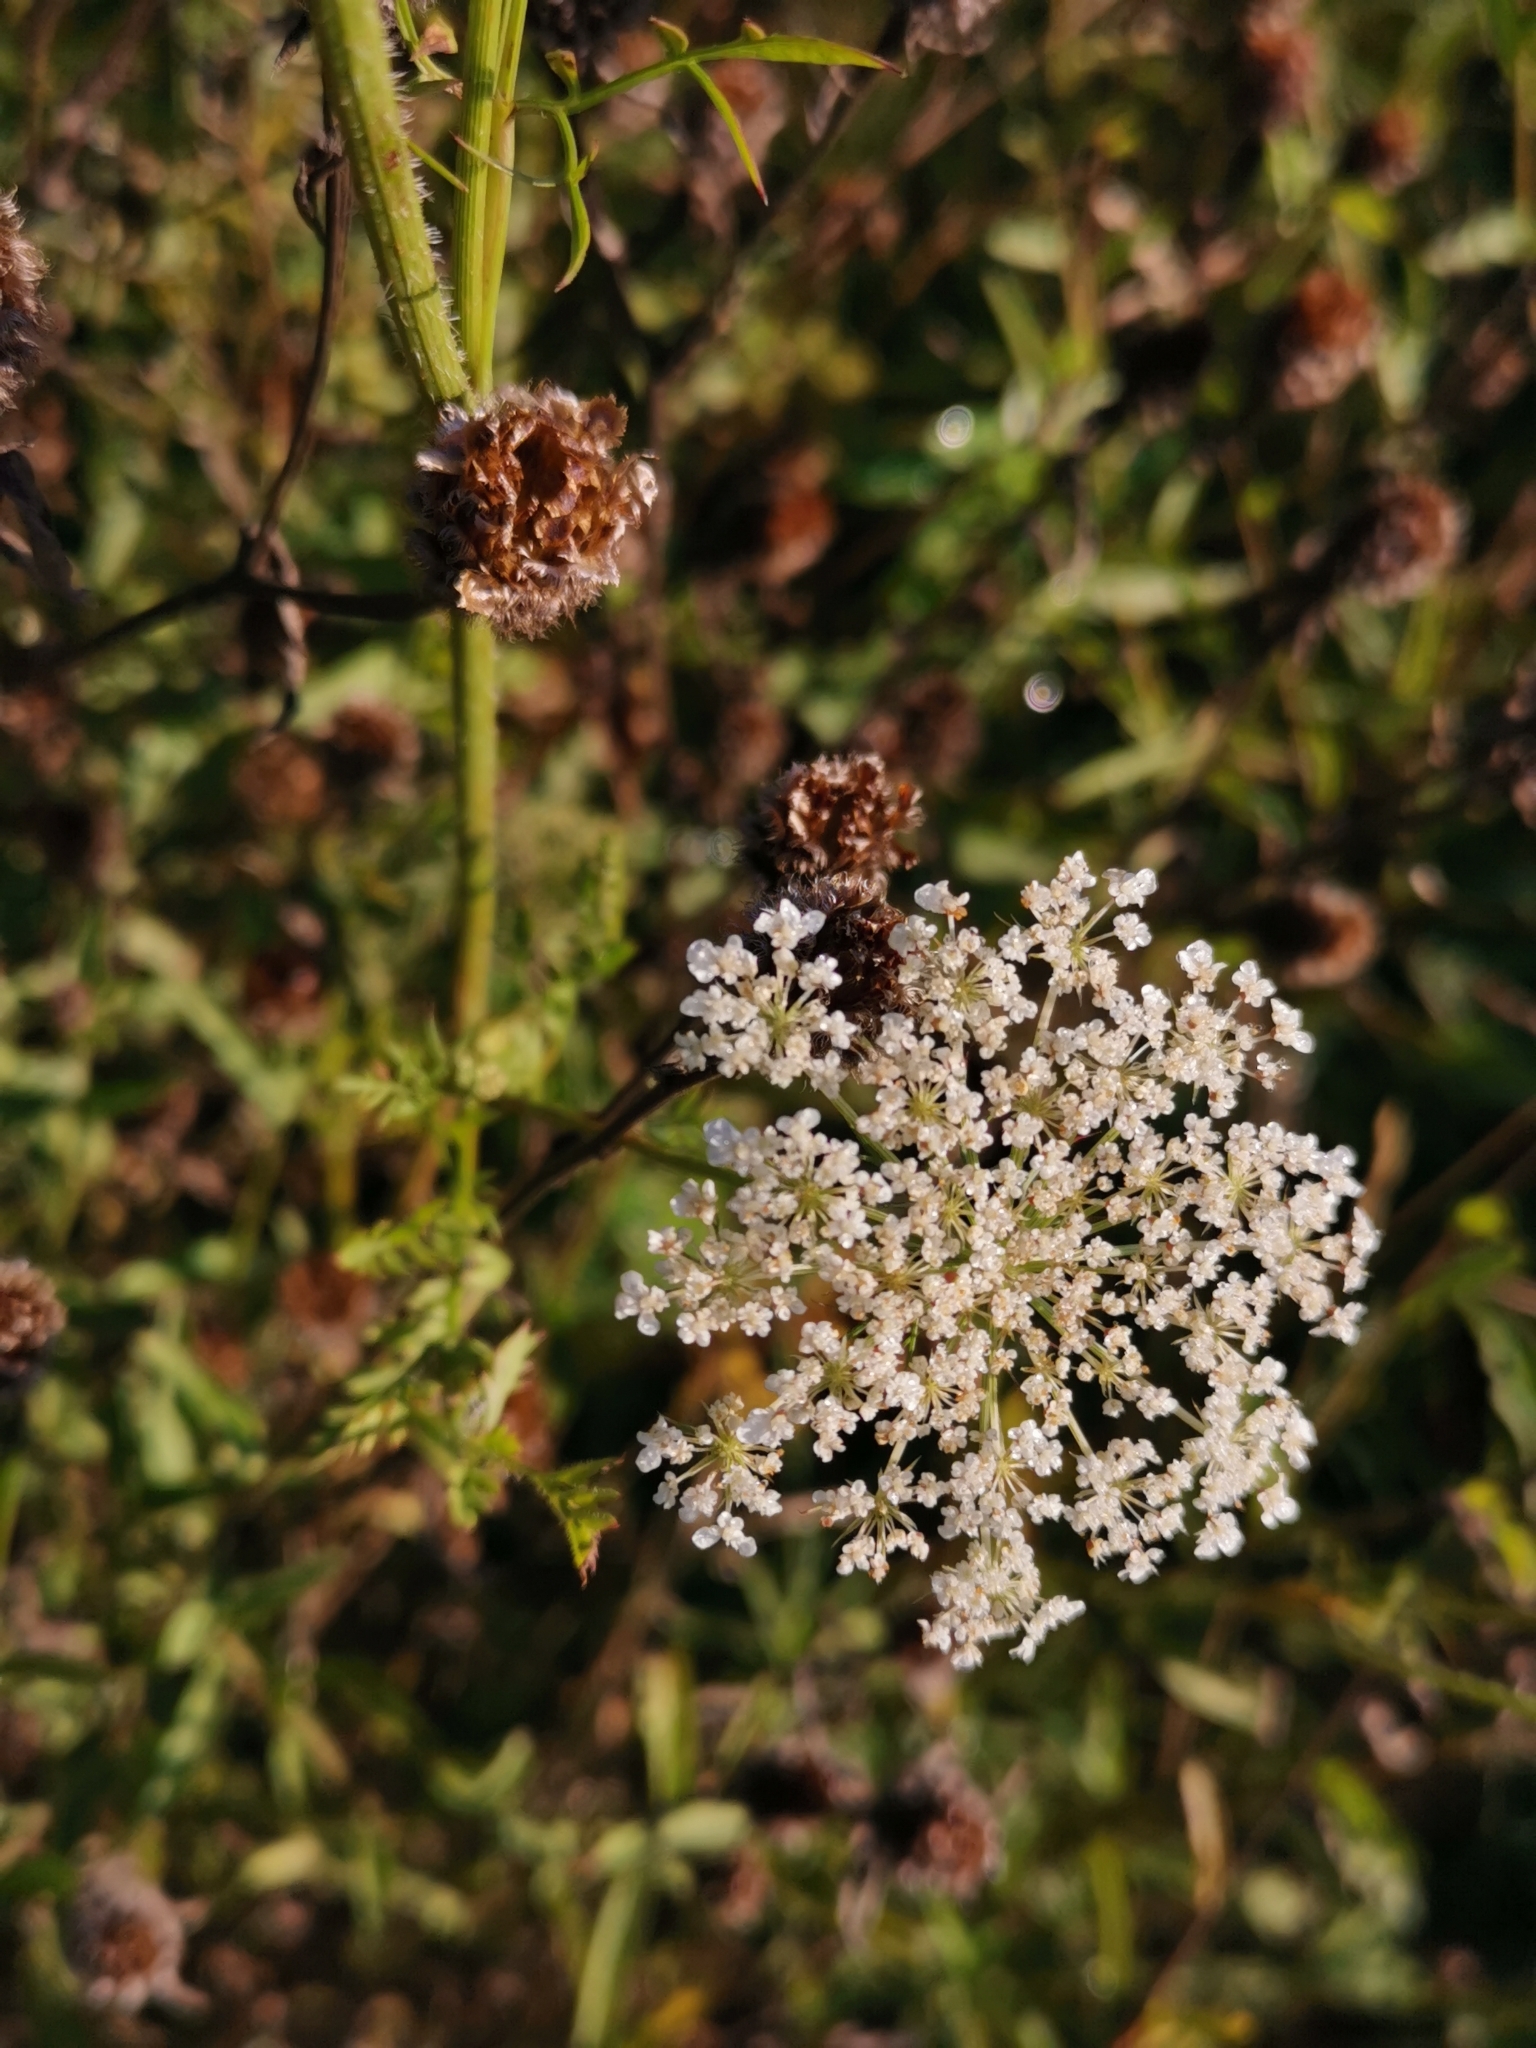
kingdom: Plantae
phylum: Tracheophyta
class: Magnoliopsida
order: Apiales
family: Apiaceae
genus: Daucus
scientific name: Daucus carota
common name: Wild carrot
